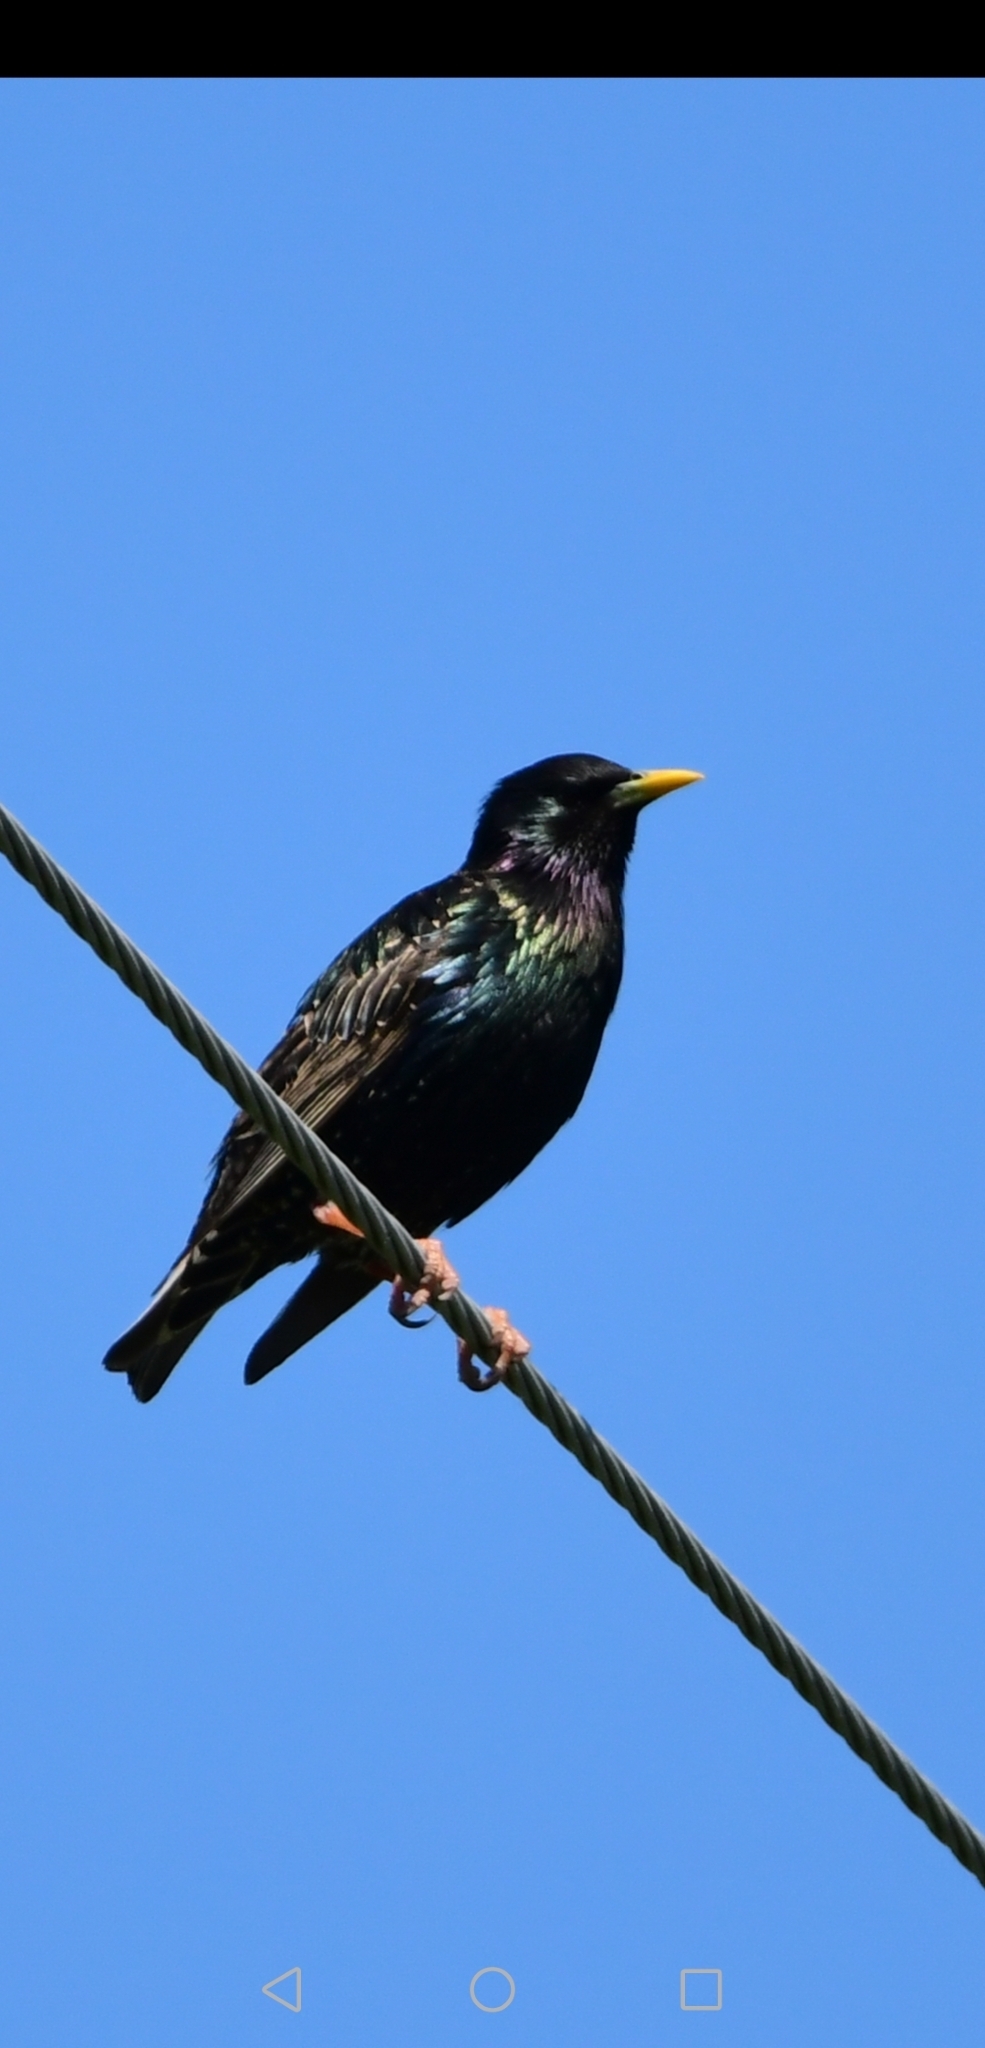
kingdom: Animalia
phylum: Chordata
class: Aves
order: Passeriformes
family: Sturnidae
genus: Sturnus
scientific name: Sturnus vulgaris
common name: Common starling
